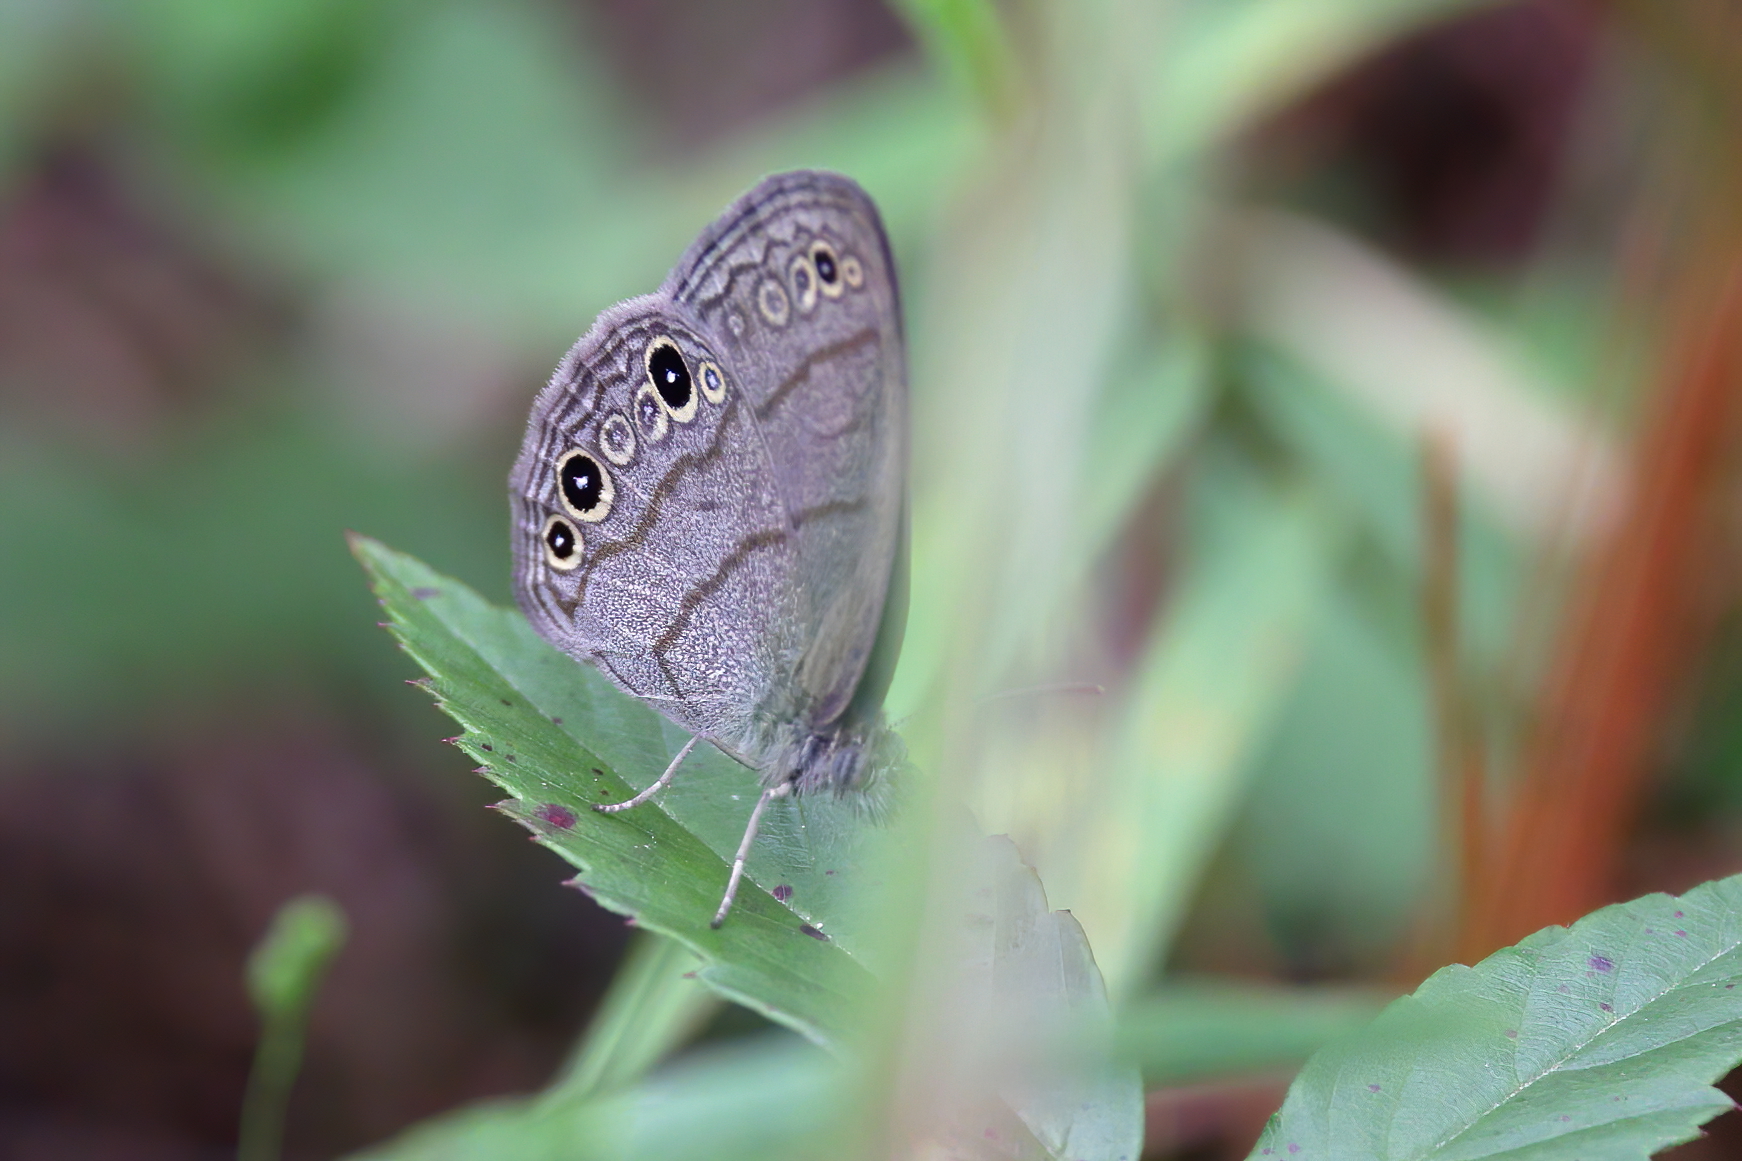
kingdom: Animalia
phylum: Arthropoda
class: Insecta
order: Lepidoptera
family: Nymphalidae
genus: Hermeuptychia
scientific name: Hermeuptychia hermes
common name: Hermes satyr
